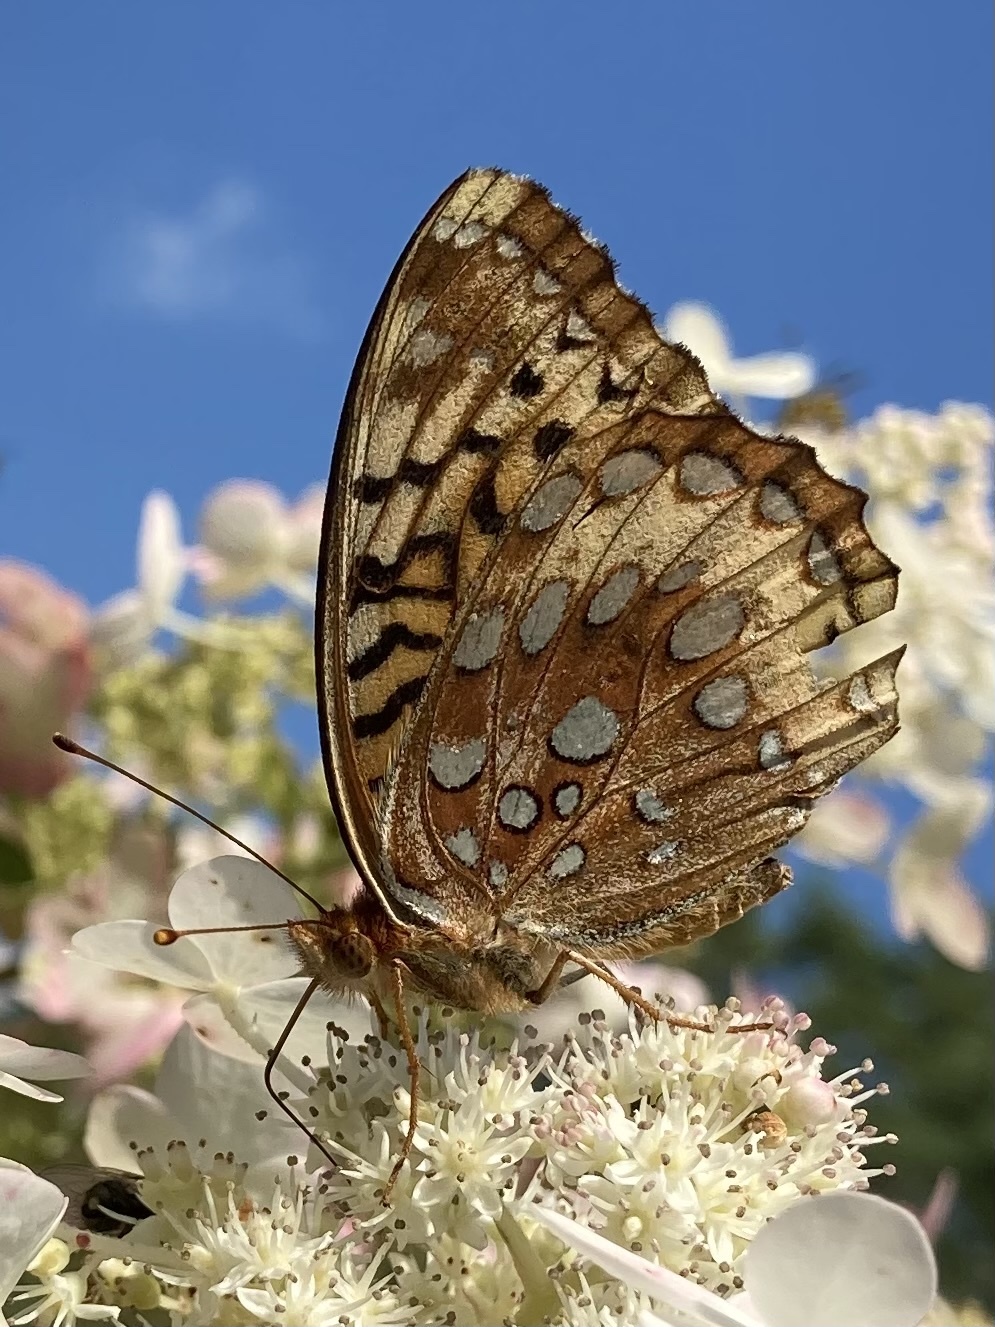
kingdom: Animalia
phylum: Arthropoda
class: Insecta
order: Lepidoptera
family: Nymphalidae
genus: Speyeria
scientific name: Speyeria cybele
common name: Great spangled fritillary
